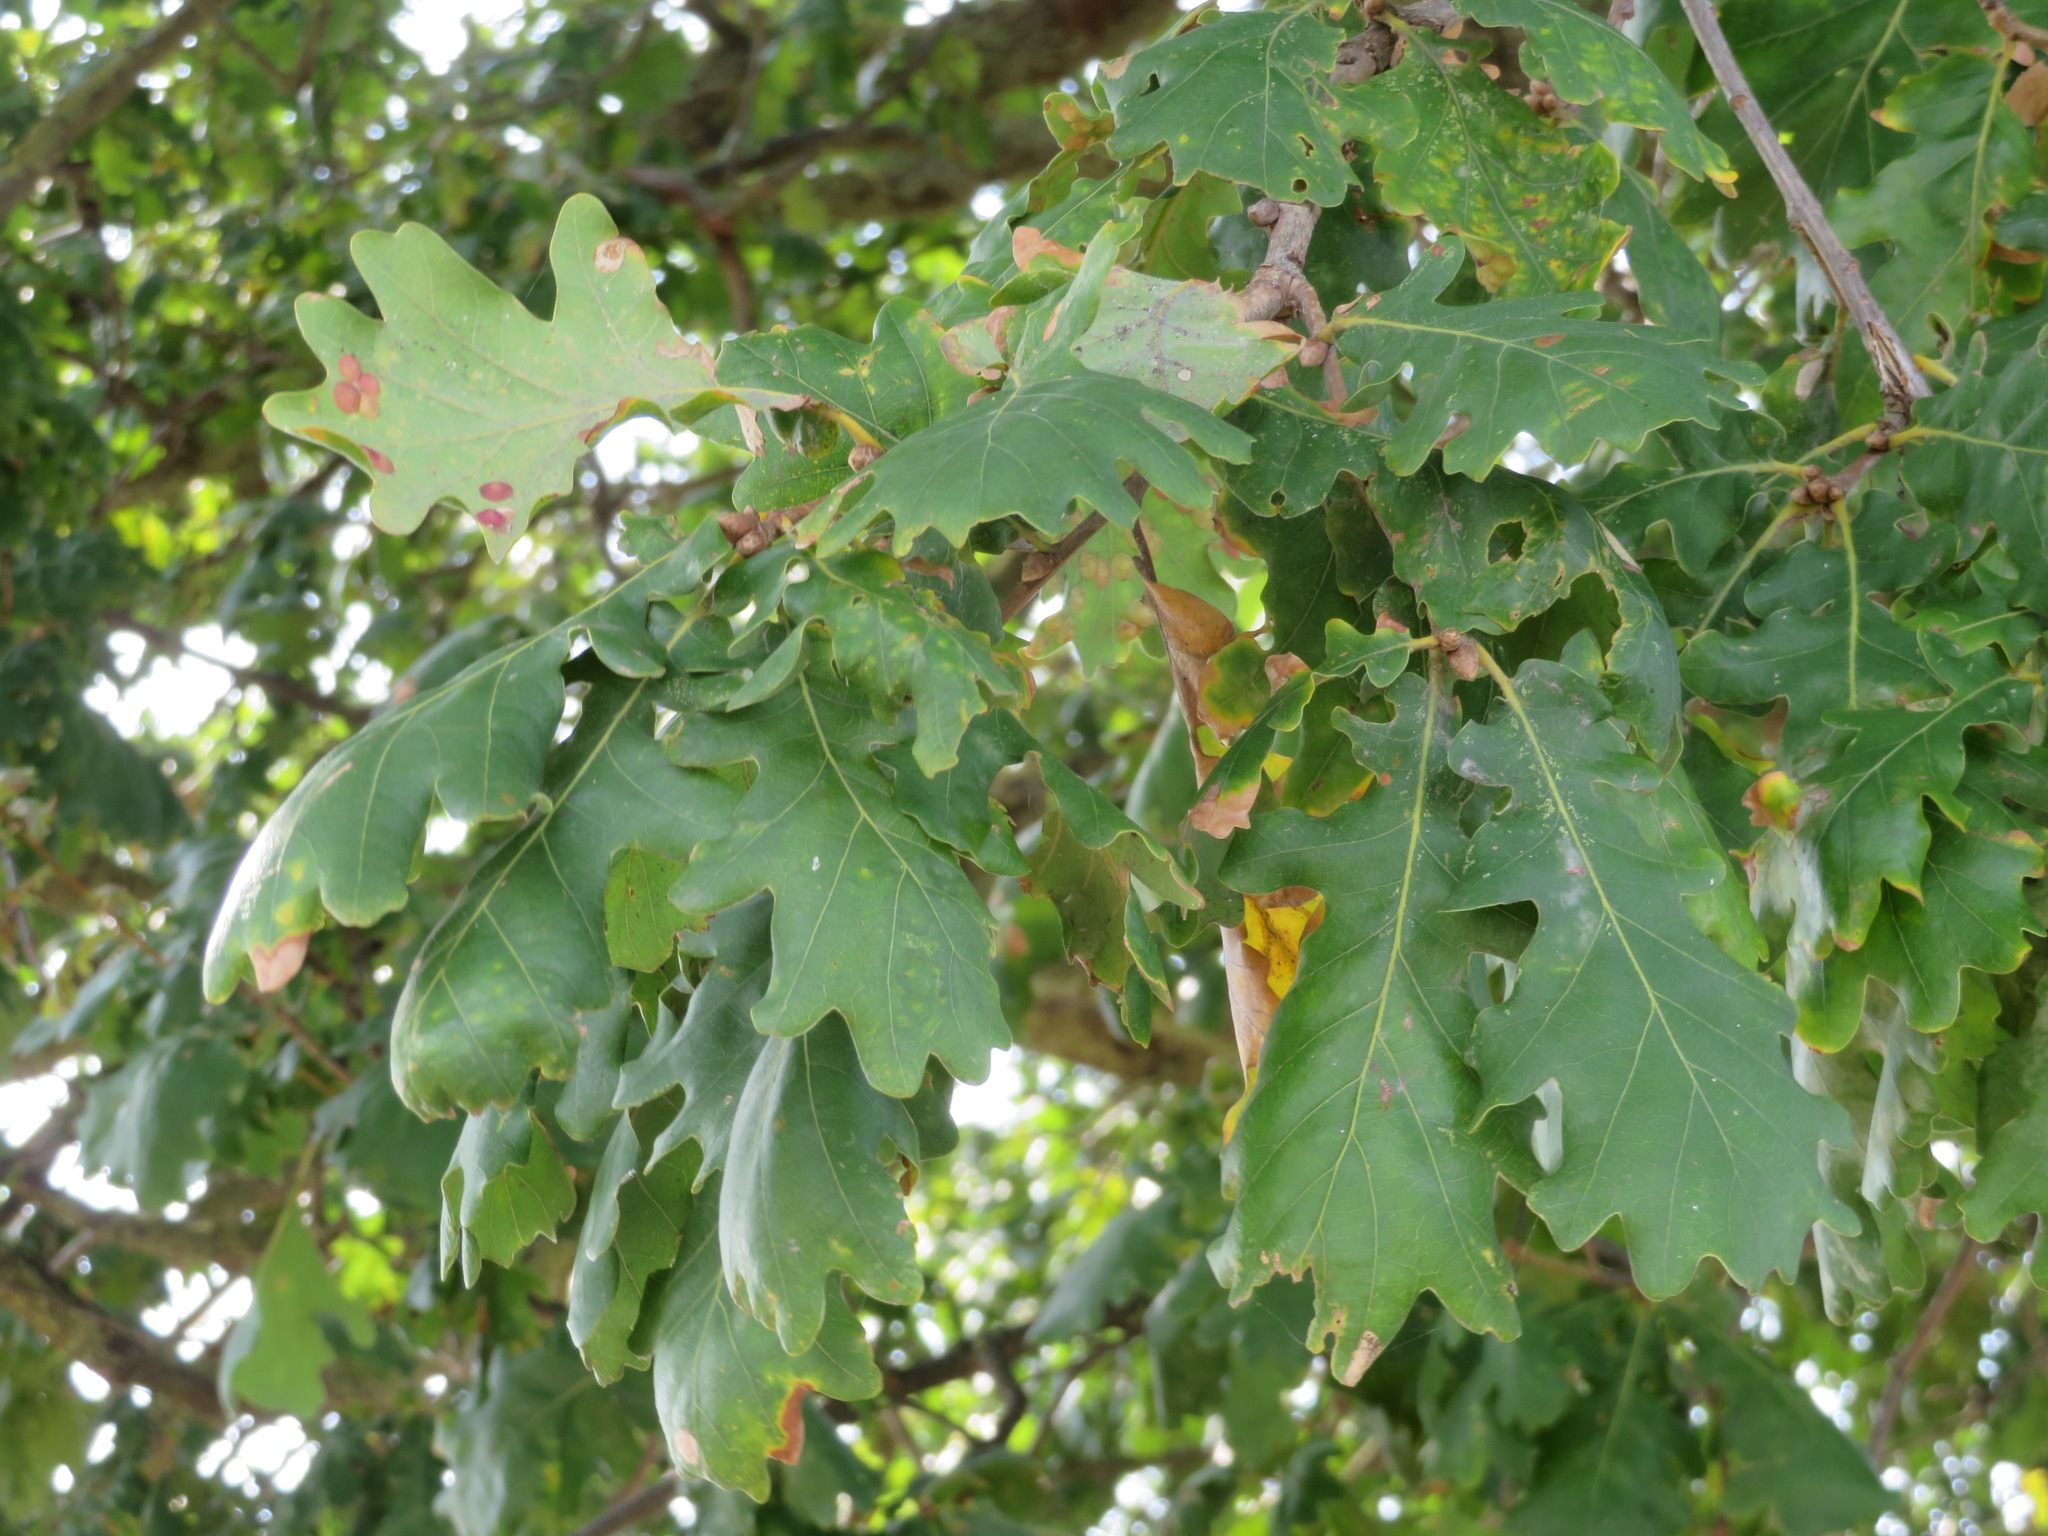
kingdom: Plantae
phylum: Tracheophyta
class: Magnoliopsida
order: Fagales
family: Fagaceae
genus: Quercus
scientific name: Quercus robur
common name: Pedunculate oak
